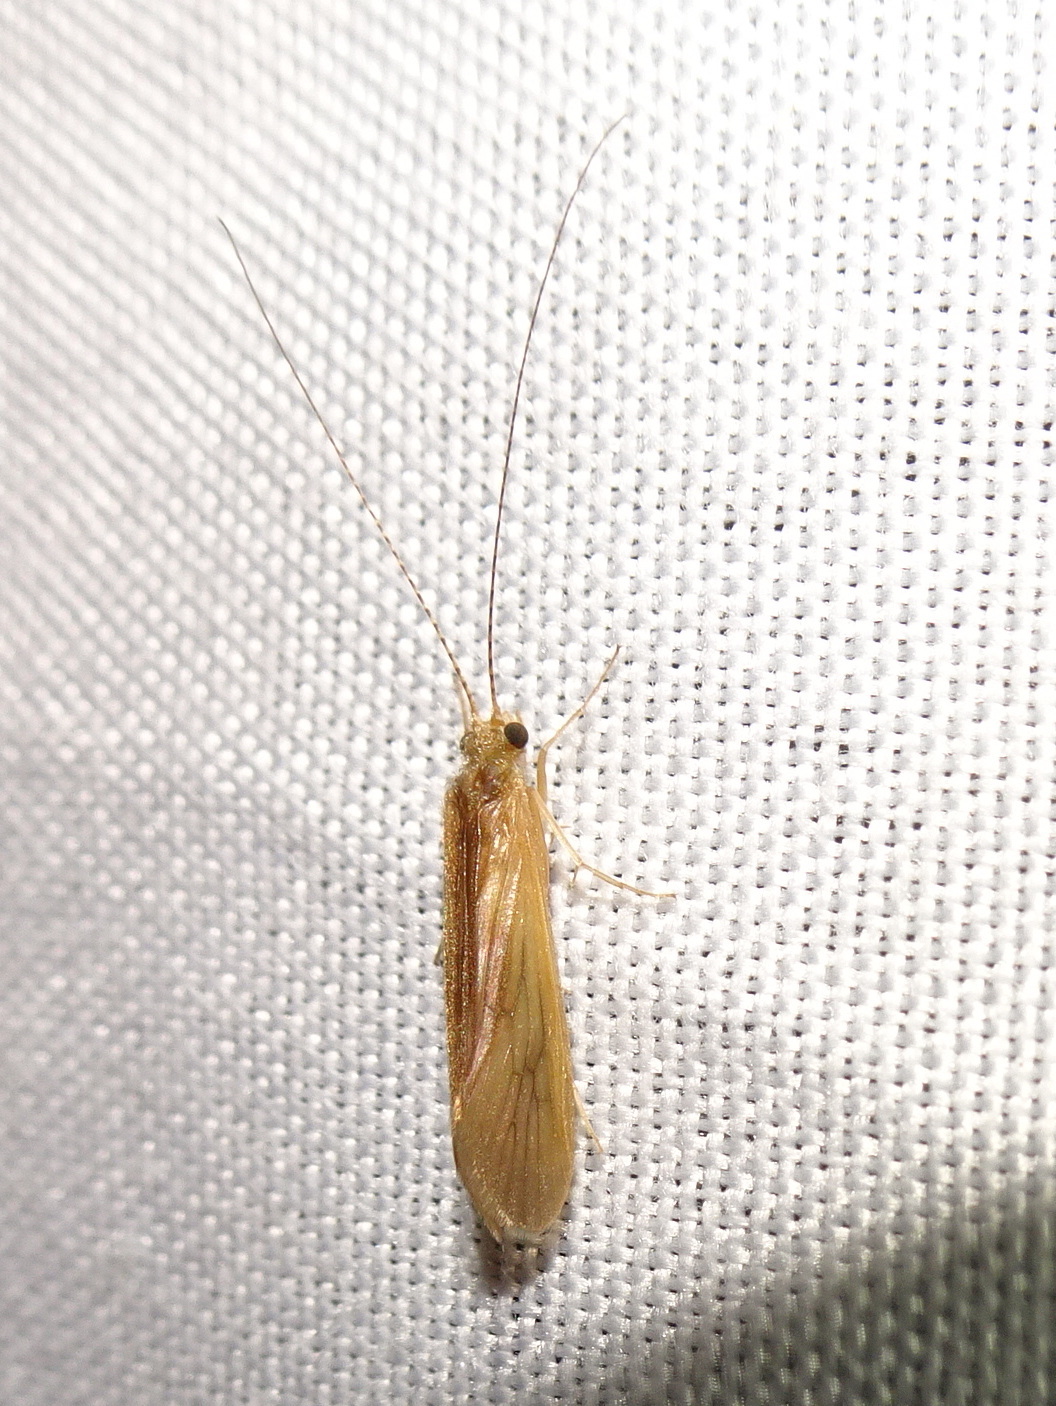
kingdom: Animalia
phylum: Arthropoda
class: Insecta
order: Trichoptera
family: Hydropsychidae
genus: Potamyia
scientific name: Potamyia flava
